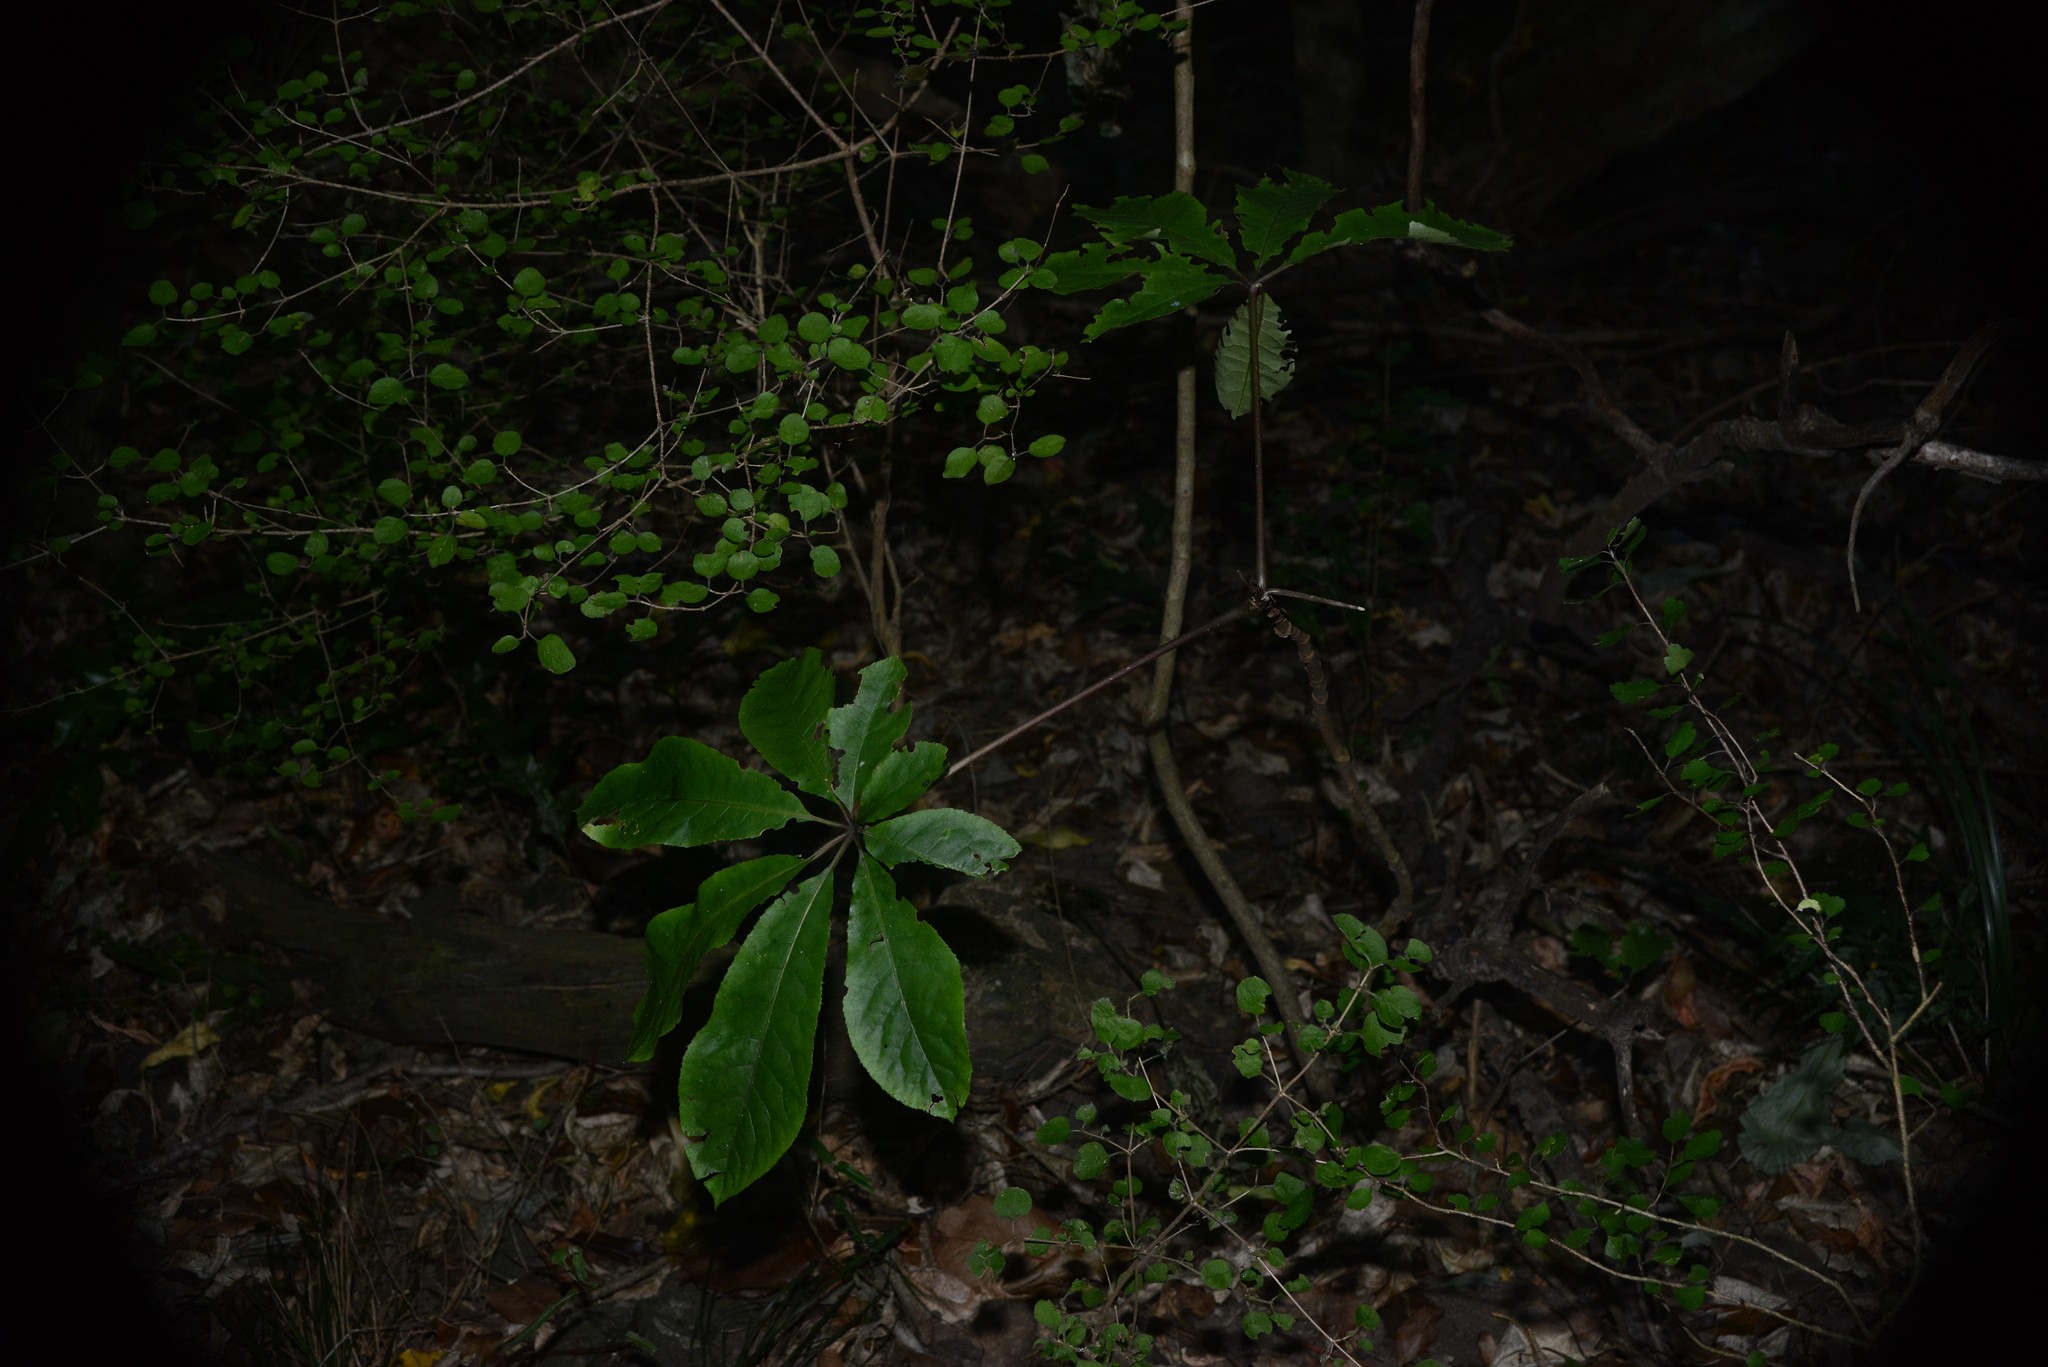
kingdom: Plantae
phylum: Tracheophyta
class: Magnoliopsida
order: Apiales
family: Araliaceae
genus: Schefflera
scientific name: Schefflera digitata
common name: Pate
